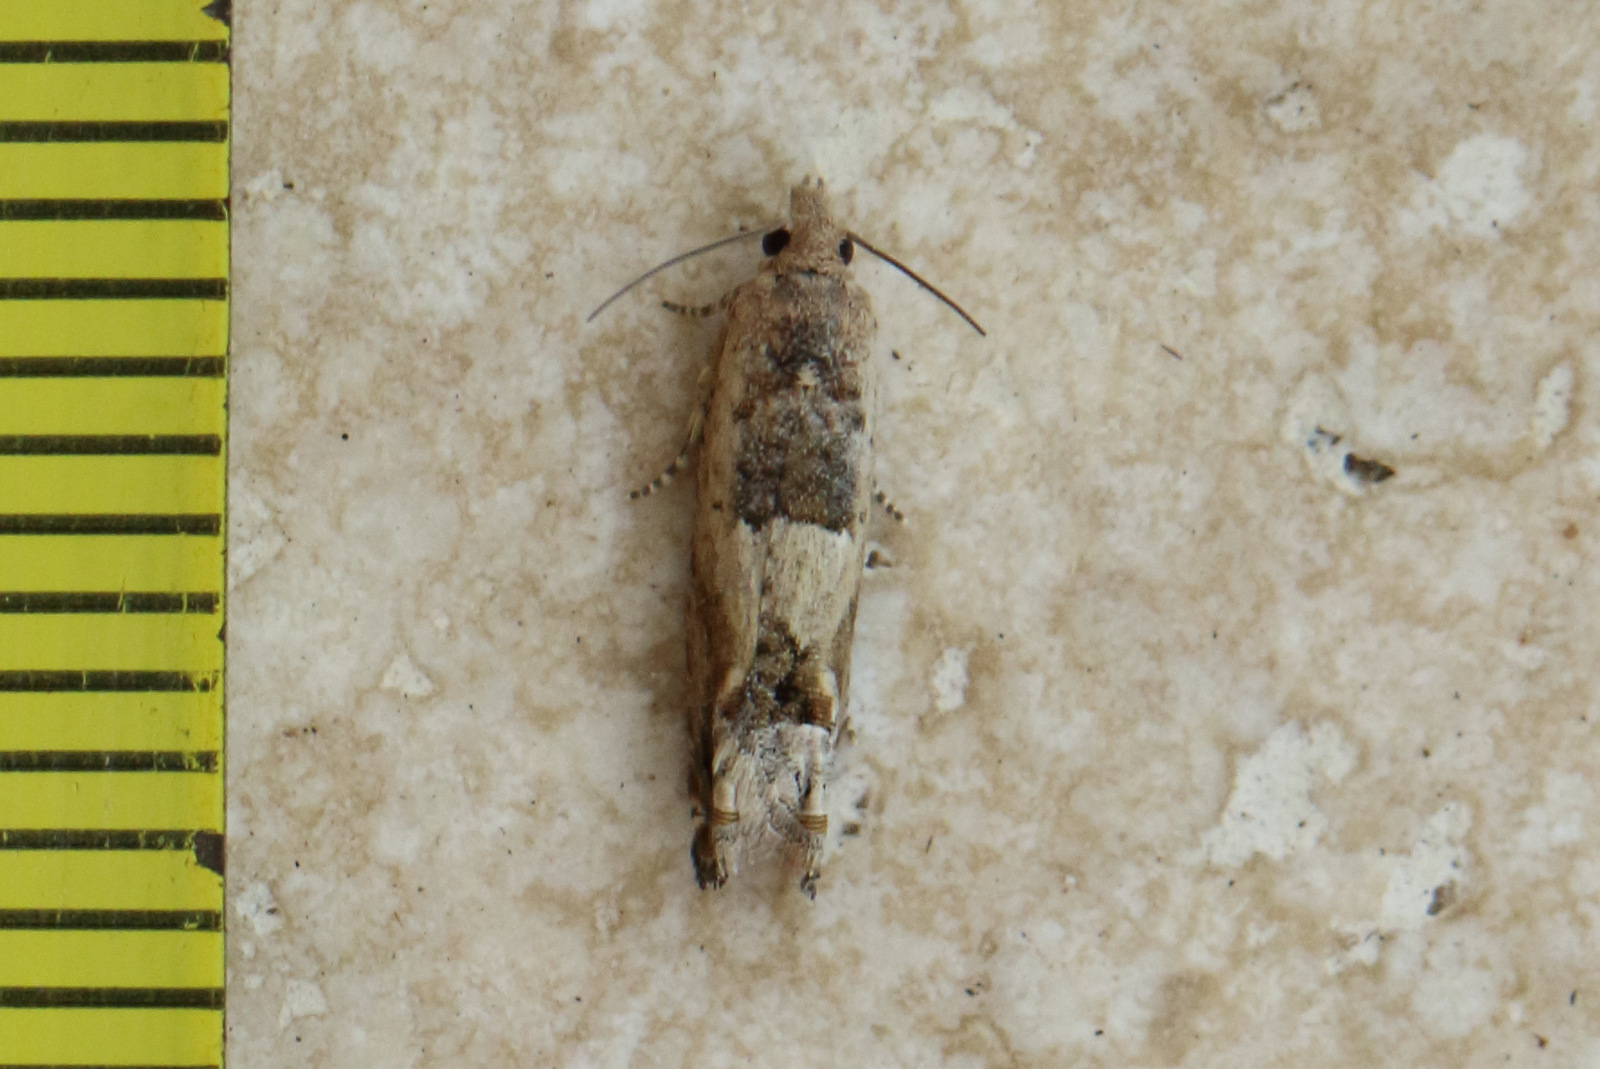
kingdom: Animalia
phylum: Arthropoda
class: Insecta
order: Lepidoptera
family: Tortricidae
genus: Crocidosema
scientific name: Crocidosema plebejana
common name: Southern bell
